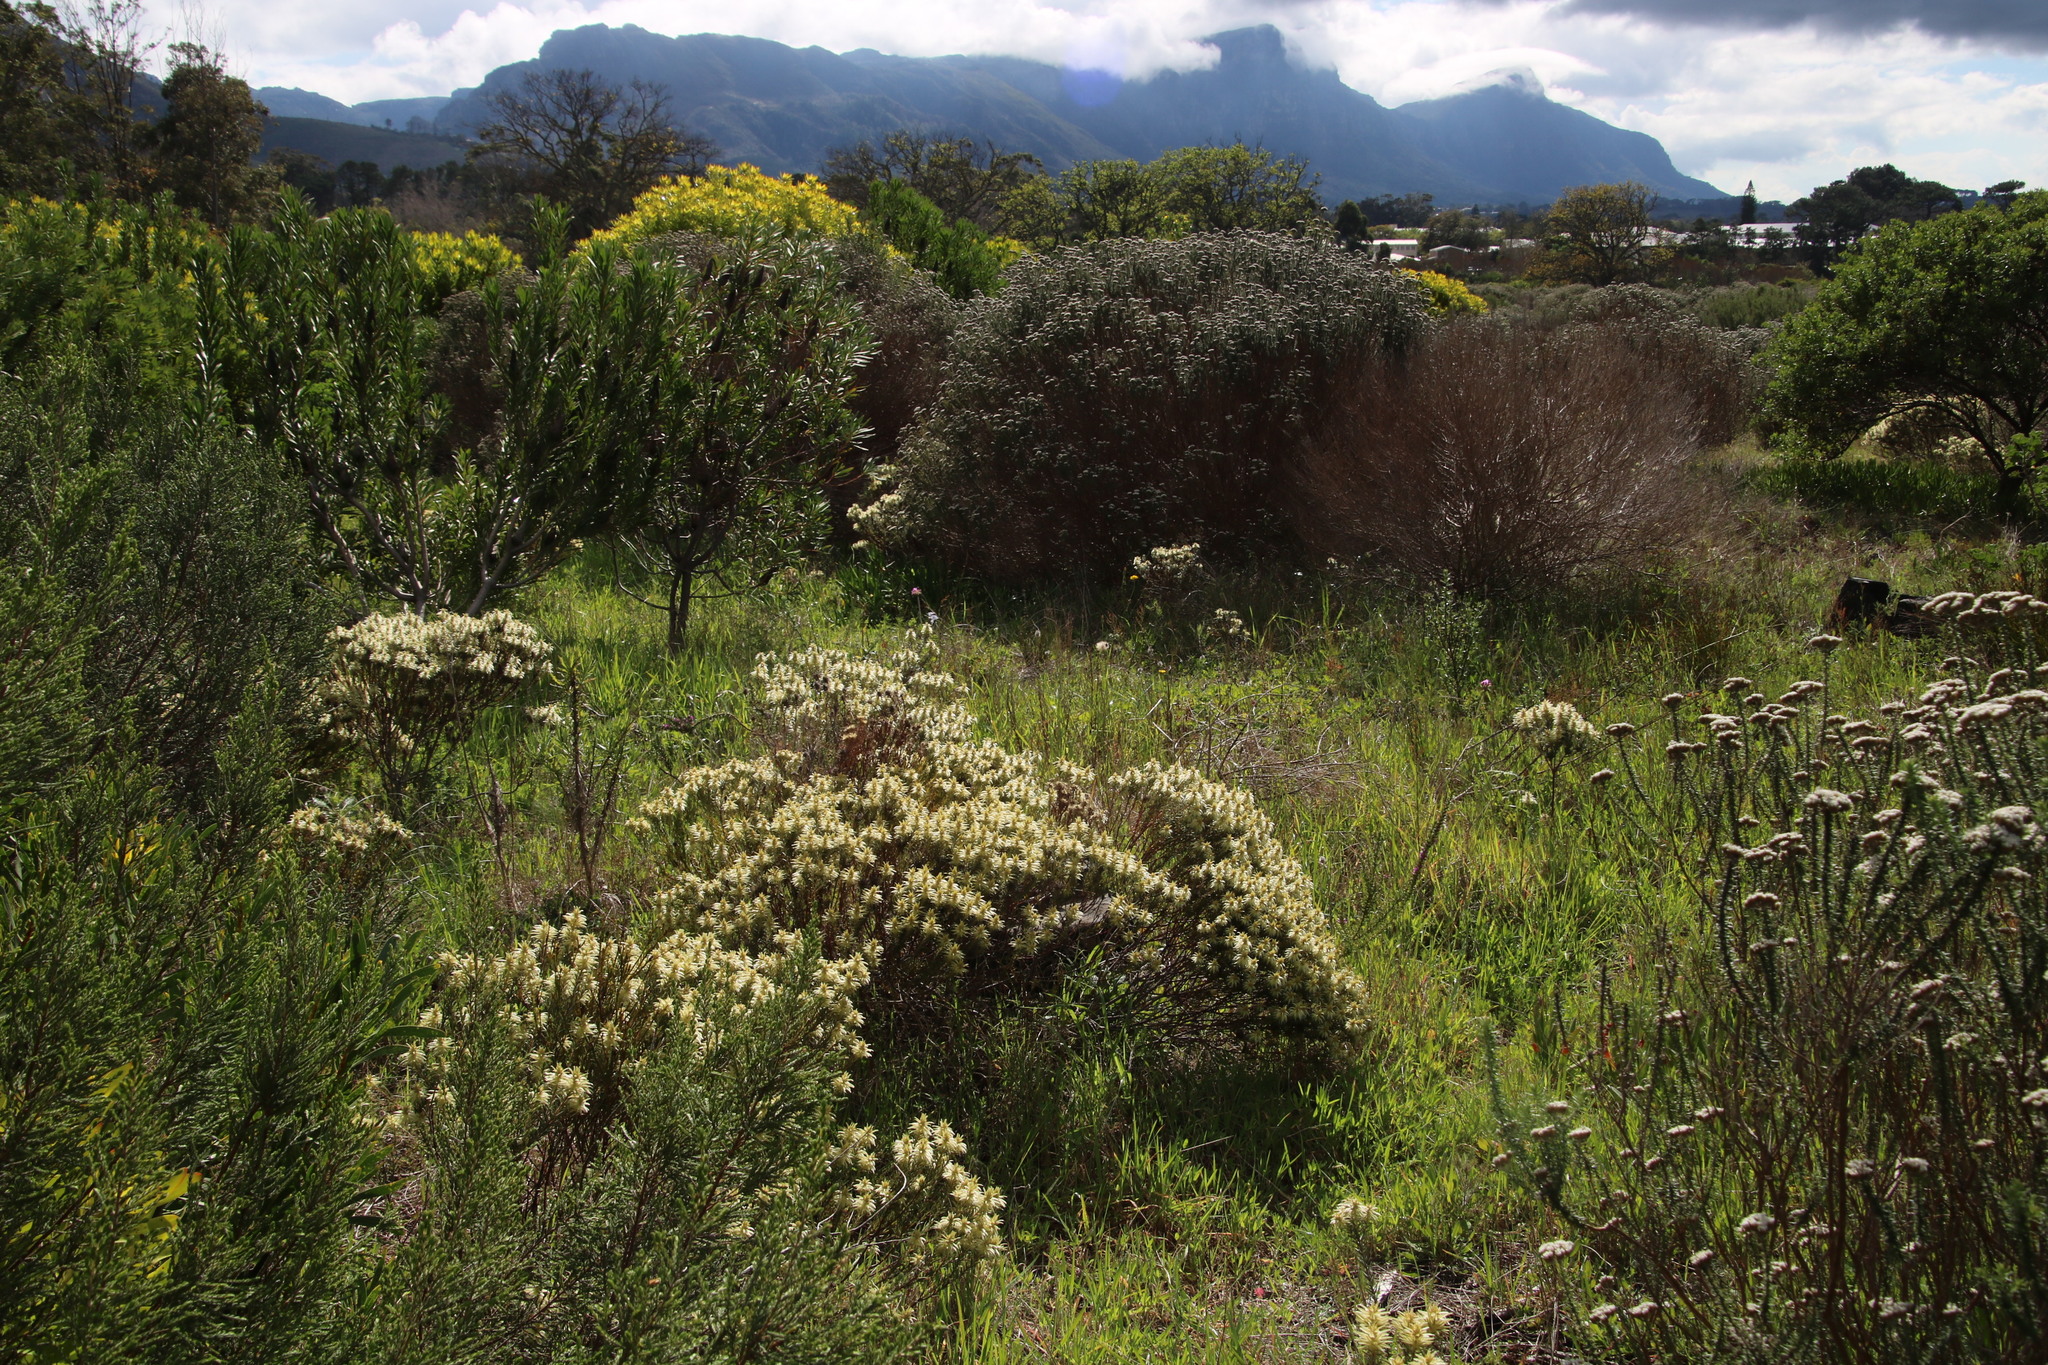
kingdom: Plantae
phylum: Tracheophyta
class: Magnoliopsida
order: Rosales
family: Rhamnaceae
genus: Phylica
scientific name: Phylica pubescens
